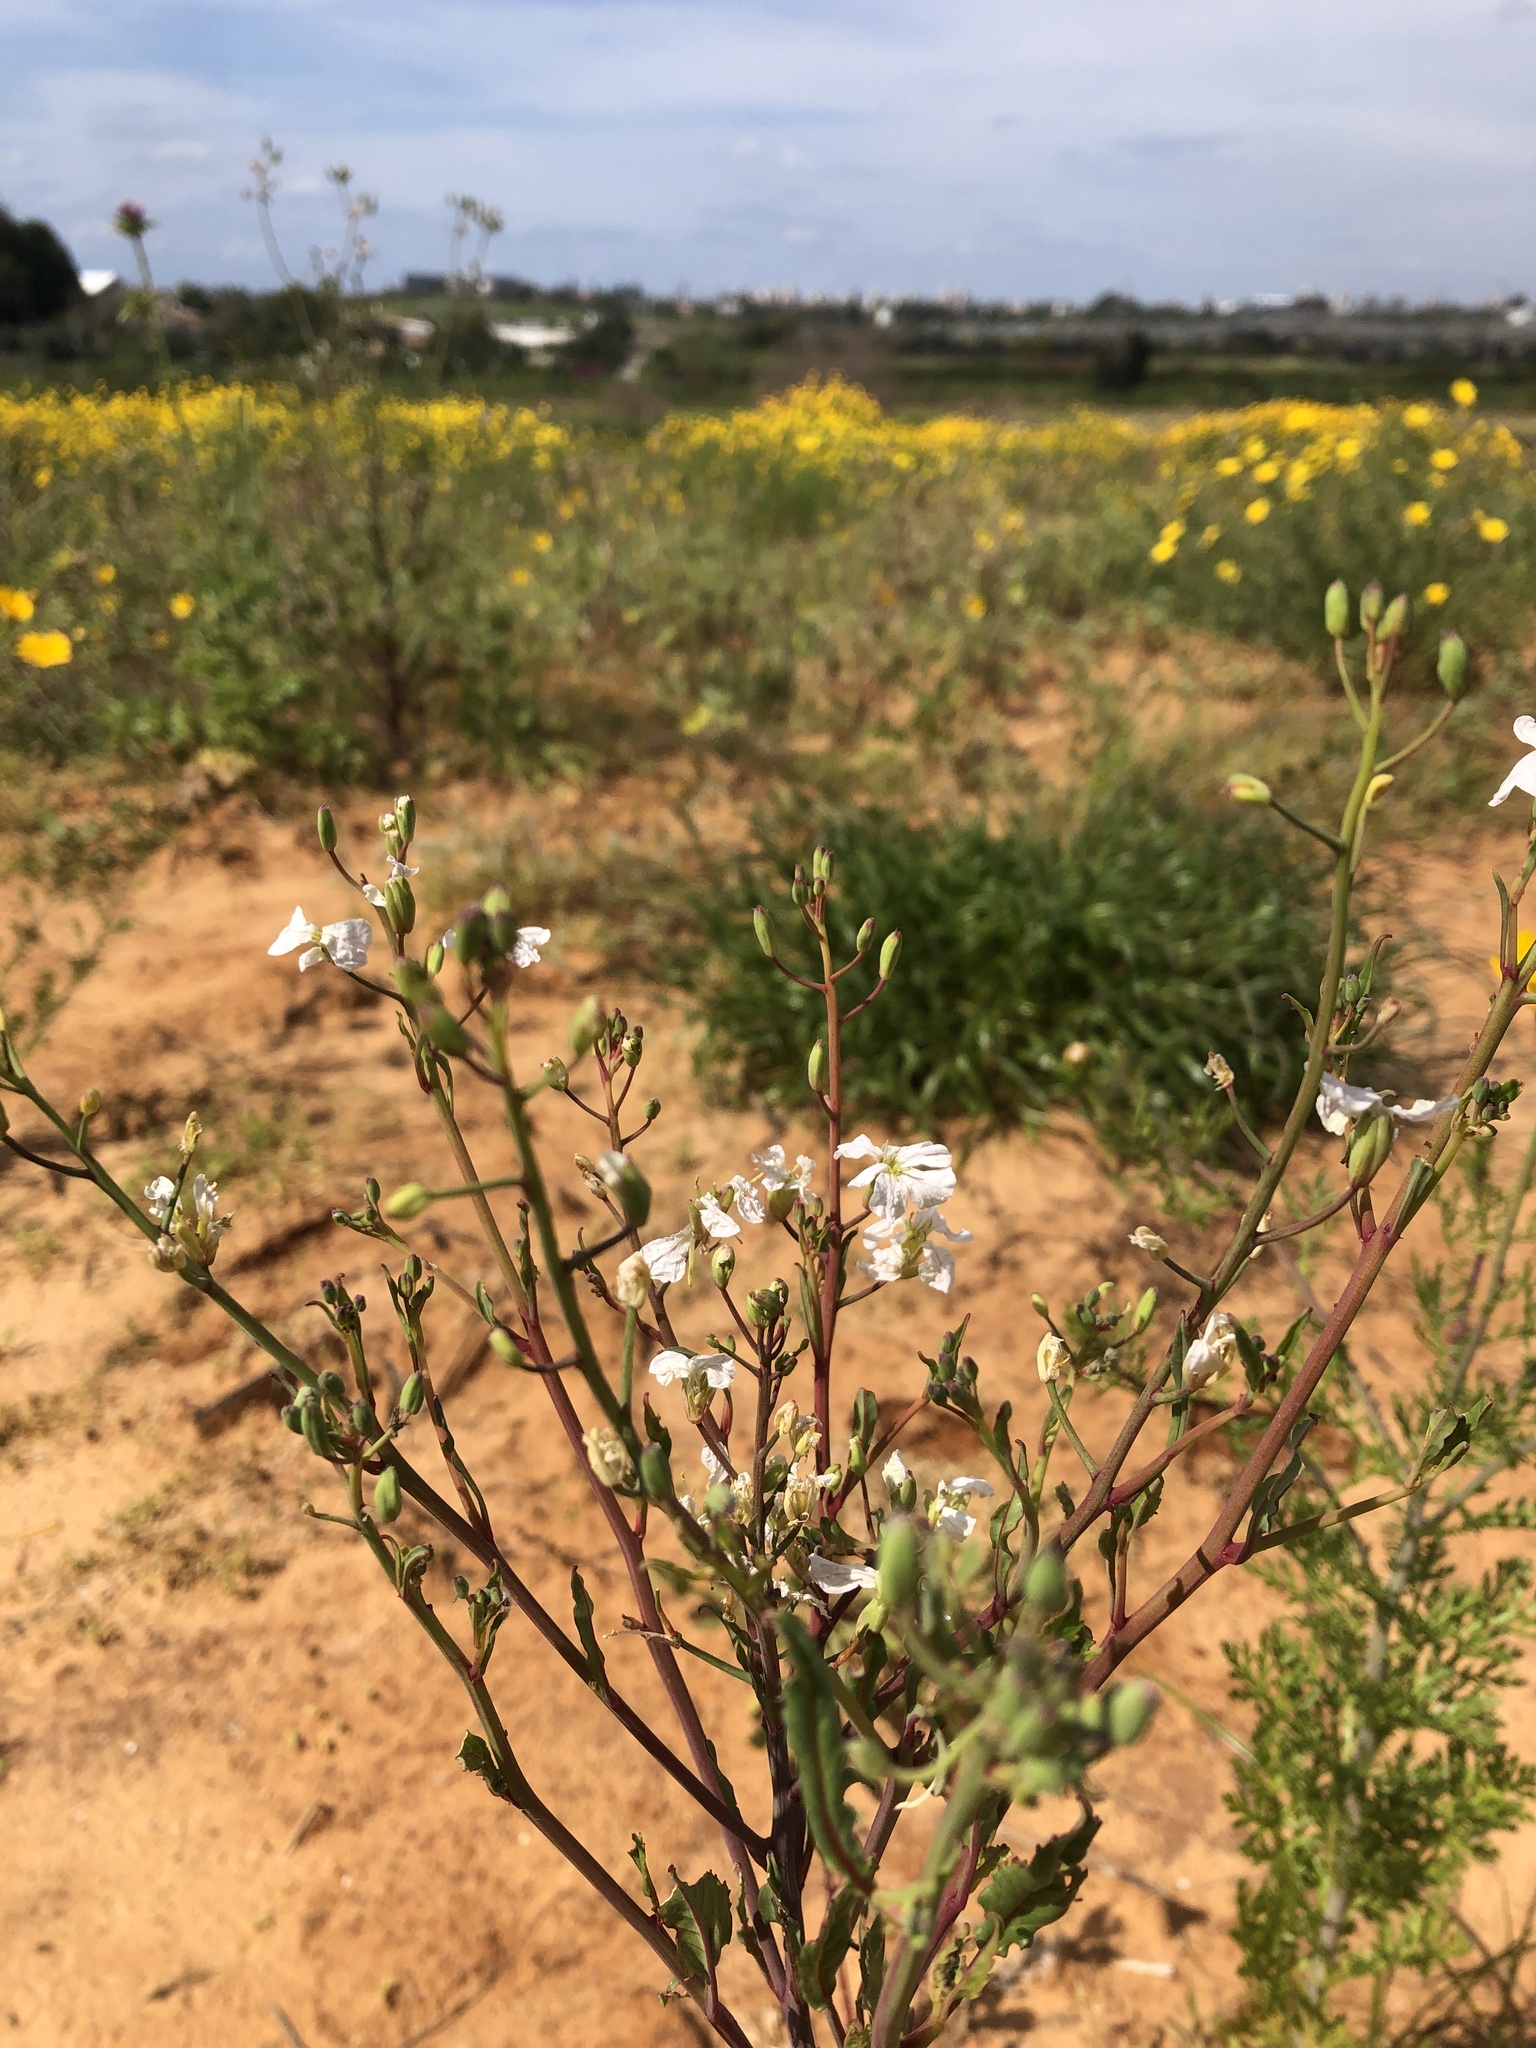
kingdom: Plantae
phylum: Tracheophyta
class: Magnoliopsida
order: Brassicales
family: Brassicaceae
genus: Raphanus
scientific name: Raphanus raphanistrum
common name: Wild radish
